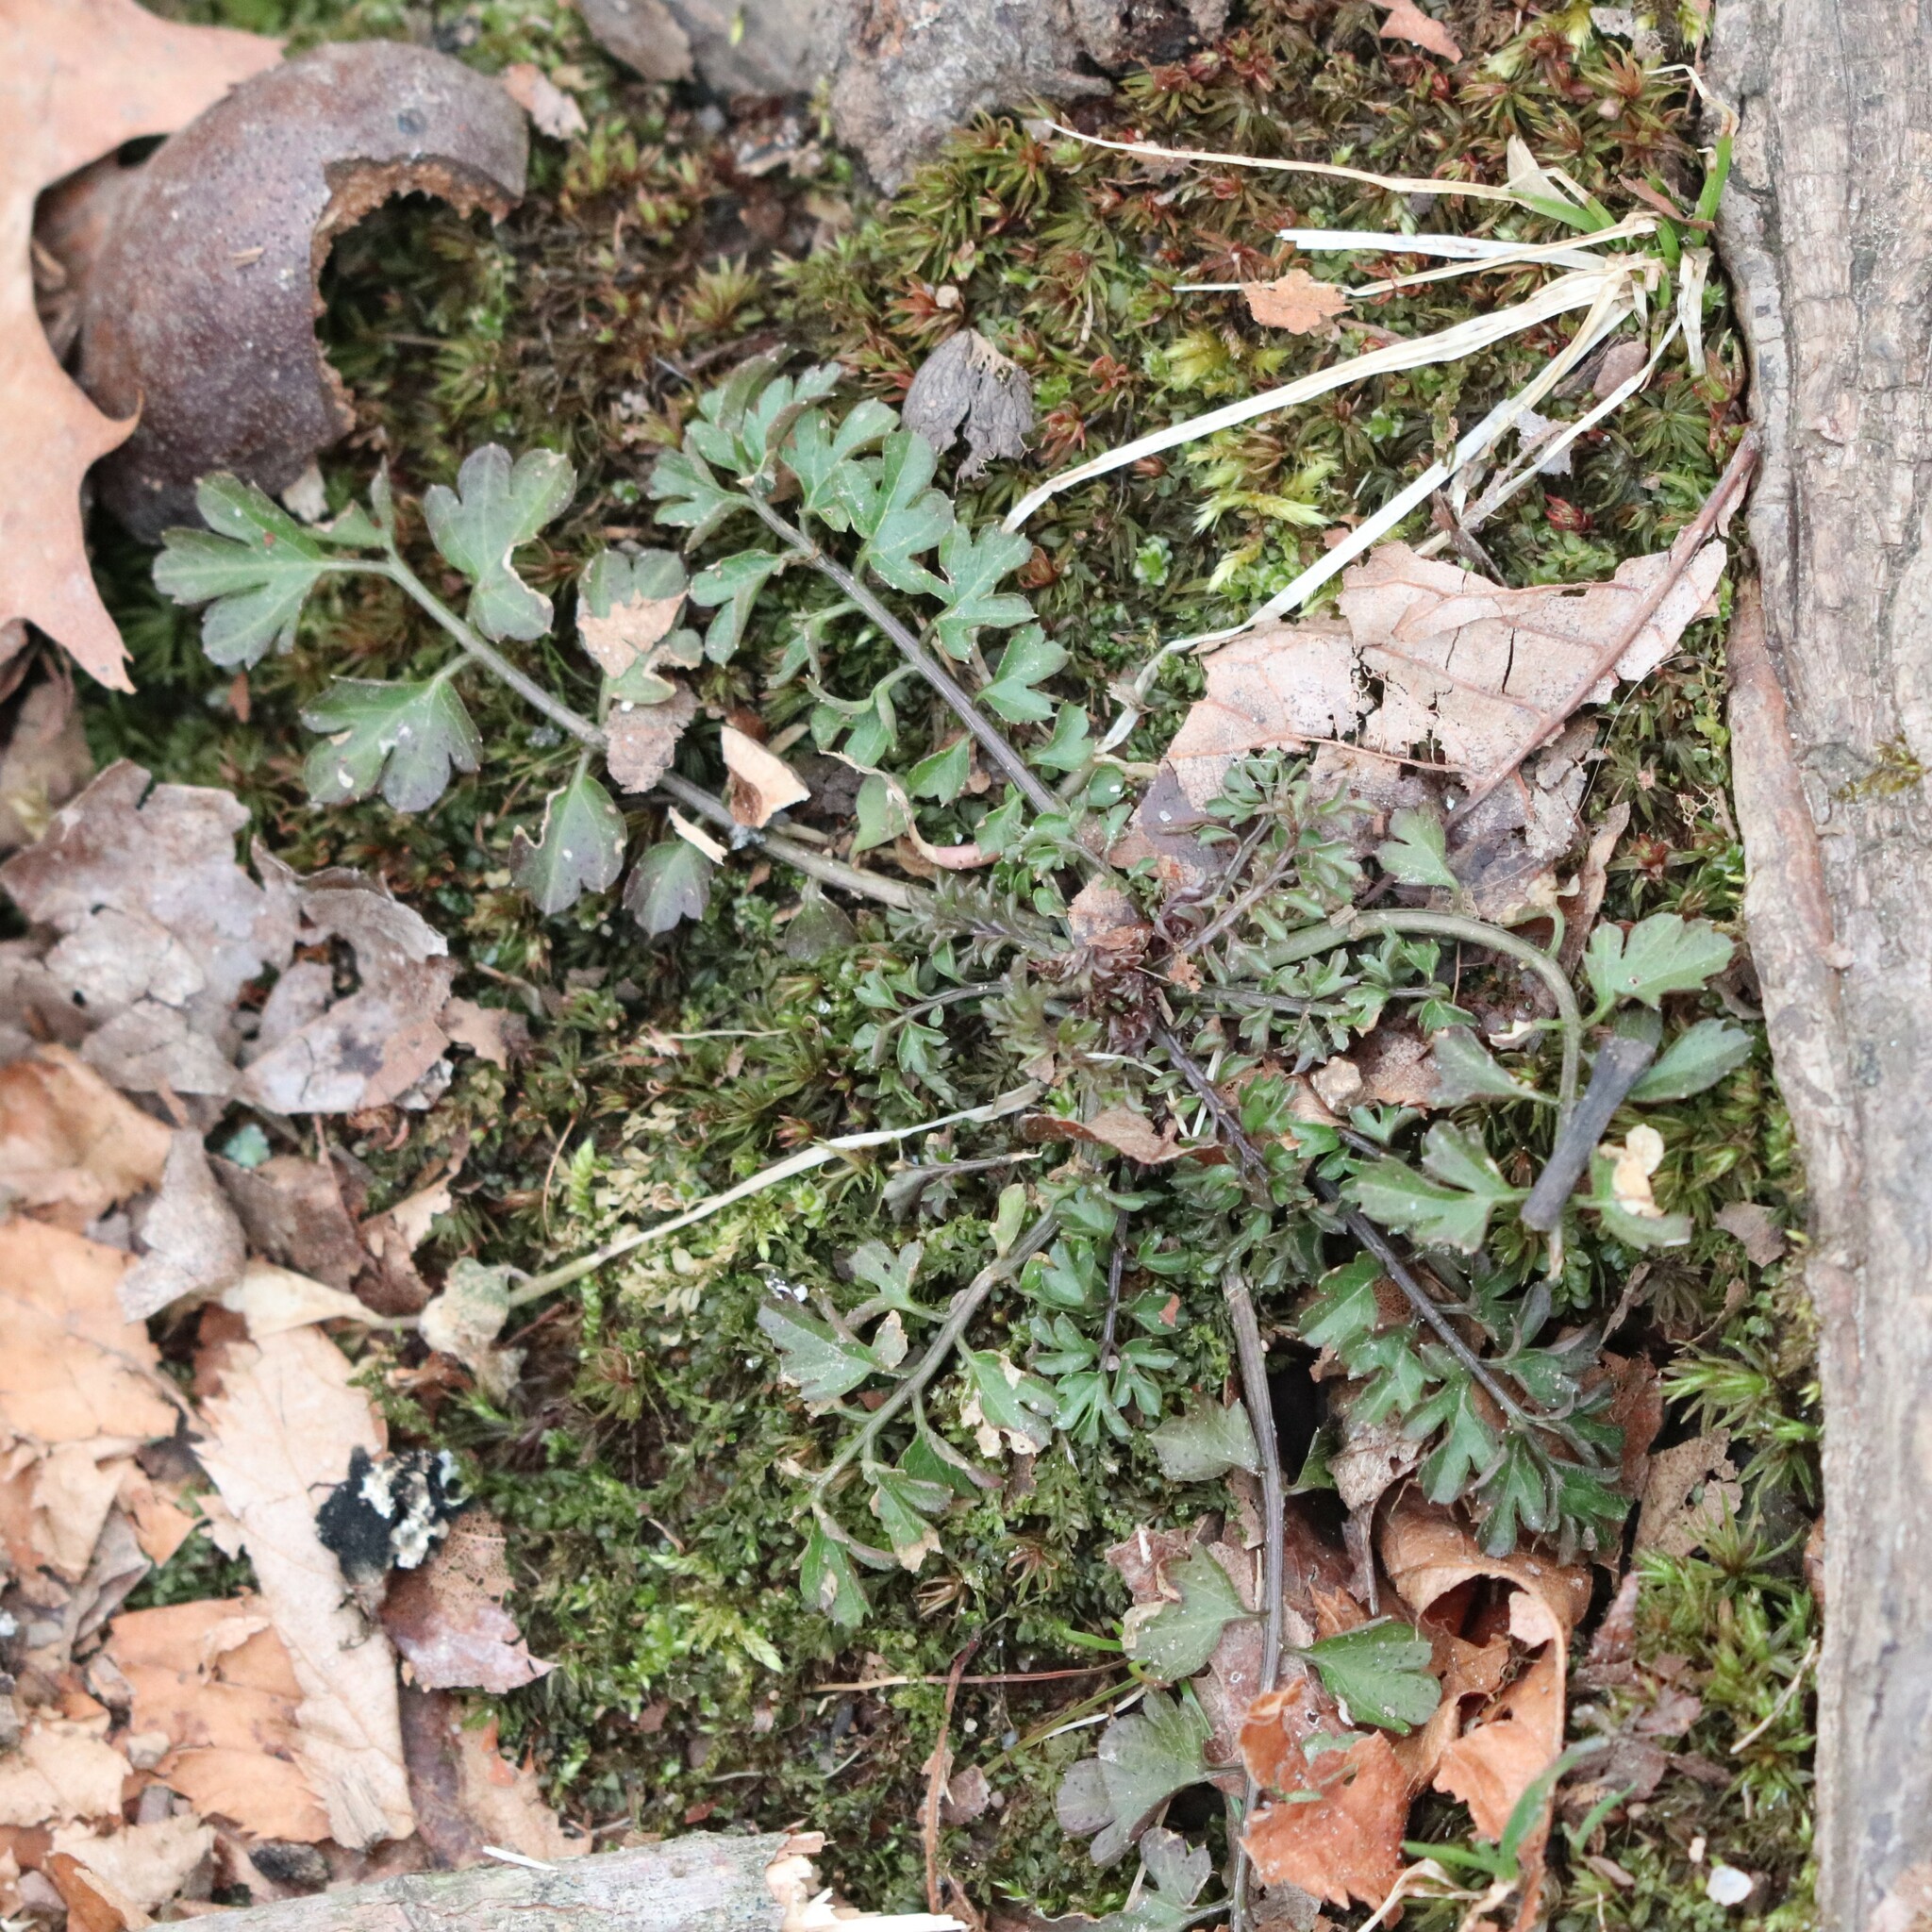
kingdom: Plantae
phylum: Tracheophyta
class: Magnoliopsida
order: Brassicales
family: Brassicaceae
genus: Cardamine
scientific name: Cardamine impatiens
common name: Narrow-leaved bitter-cress
